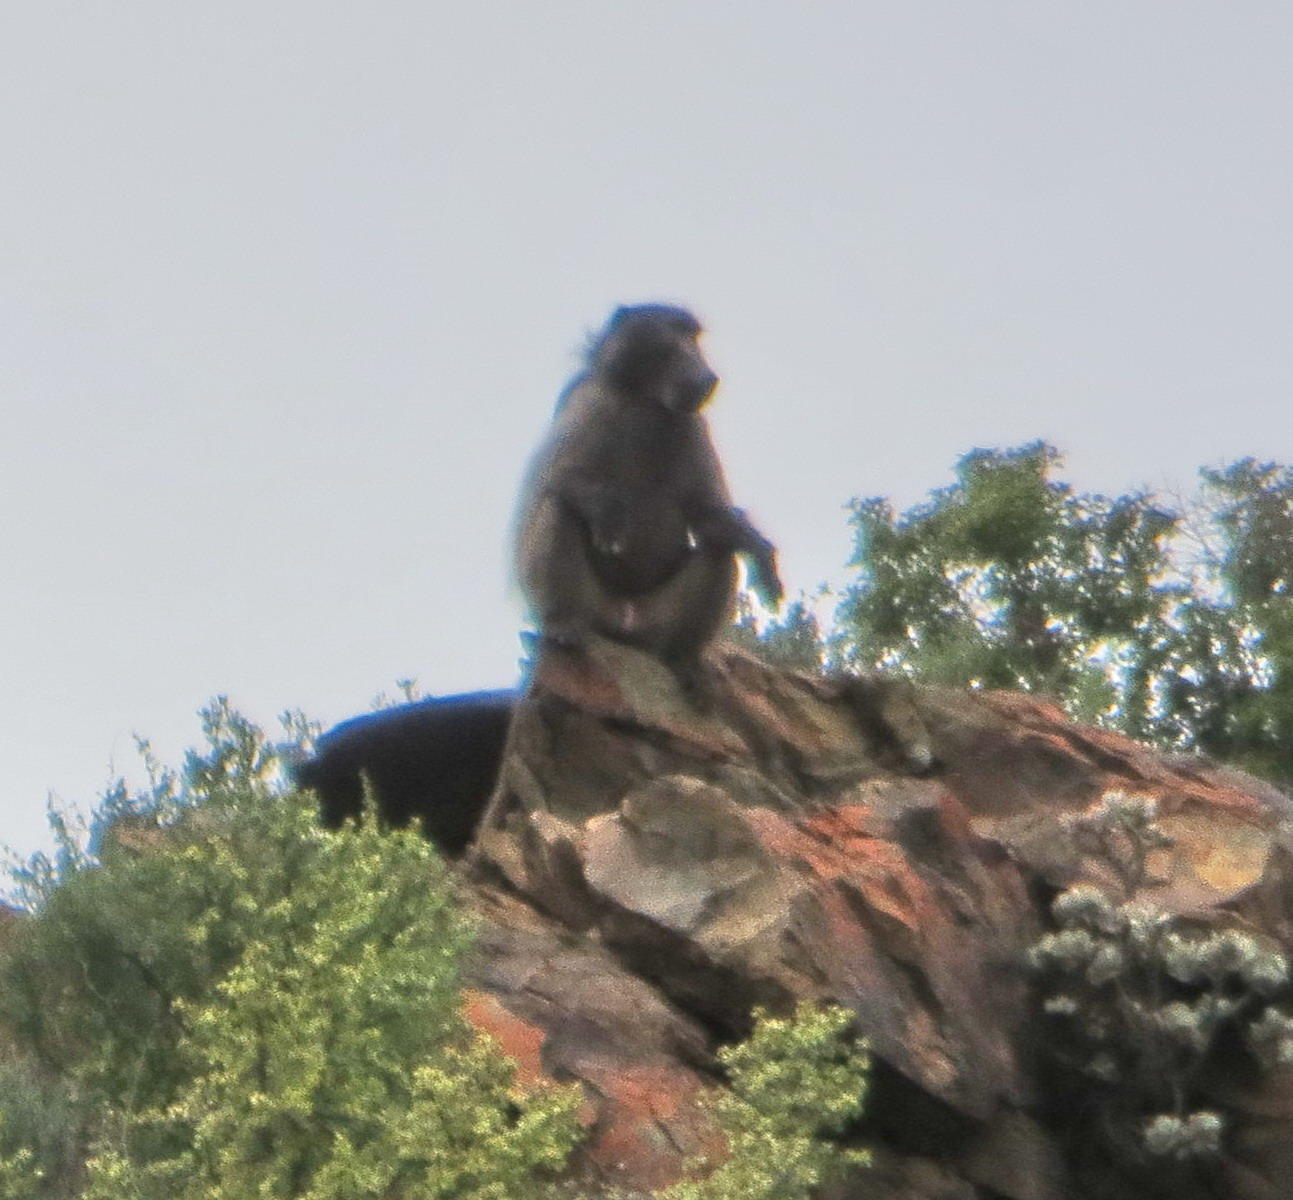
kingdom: Animalia
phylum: Chordata
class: Mammalia
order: Primates
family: Cercopithecidae
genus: Papio
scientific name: Papio ursinus
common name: Chacma baboon
